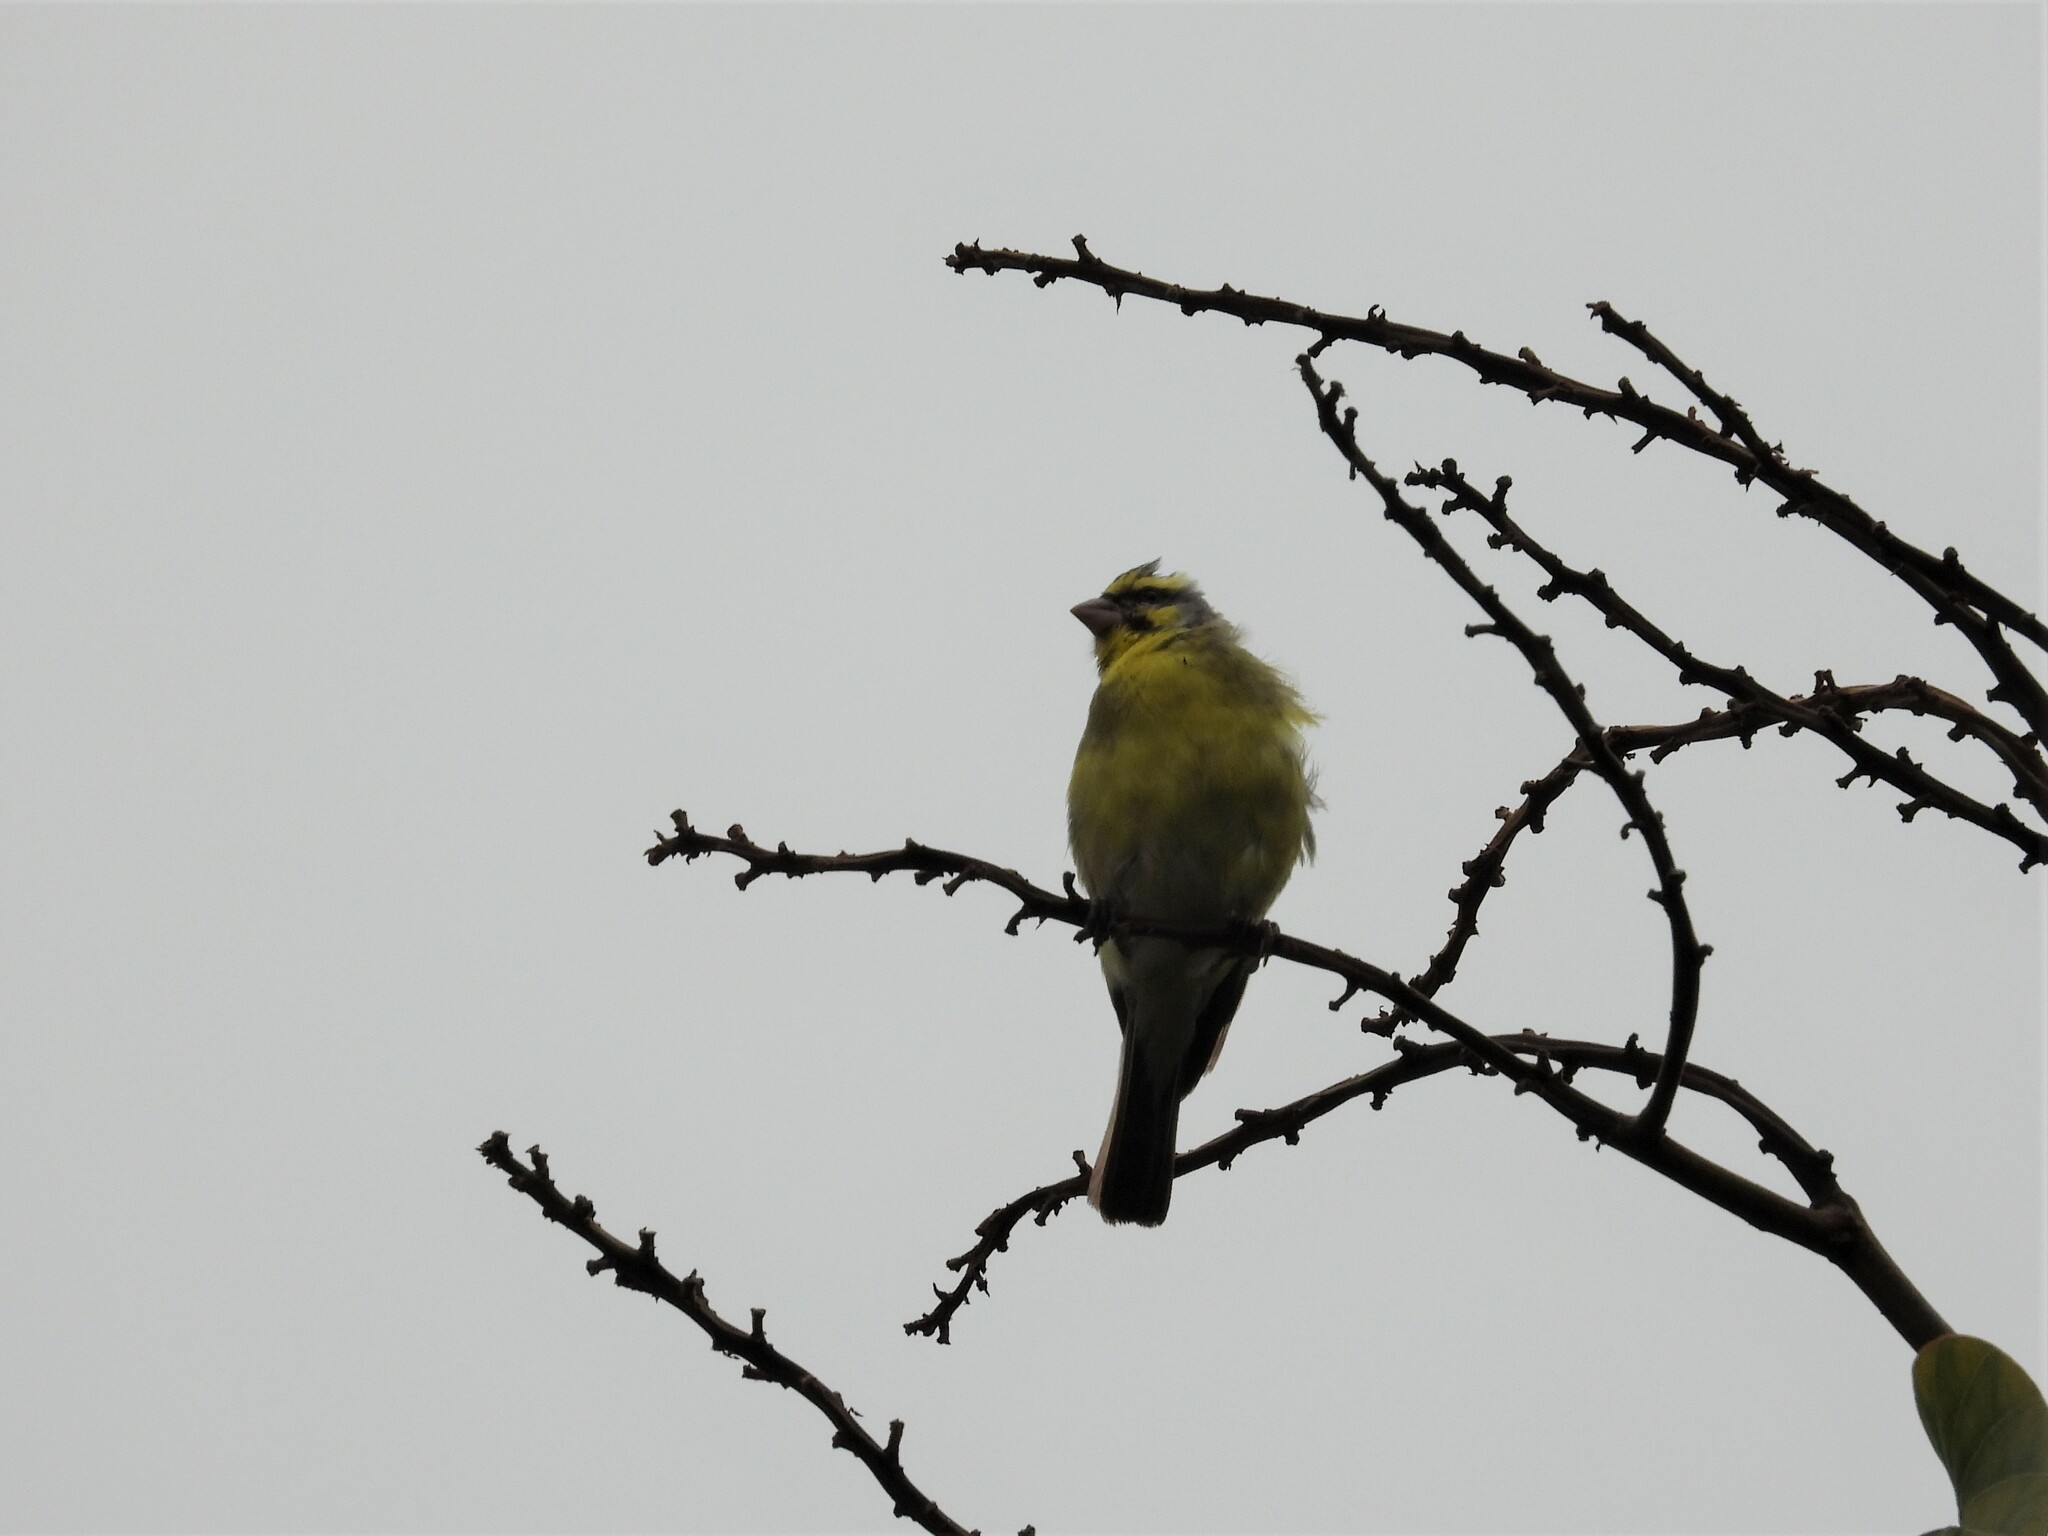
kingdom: Animalia
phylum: Chordata
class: Aves
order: Passeriformes
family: Fringillidae
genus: Crithagra
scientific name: Crithagra mozambica
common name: Yellow-fronted canary
